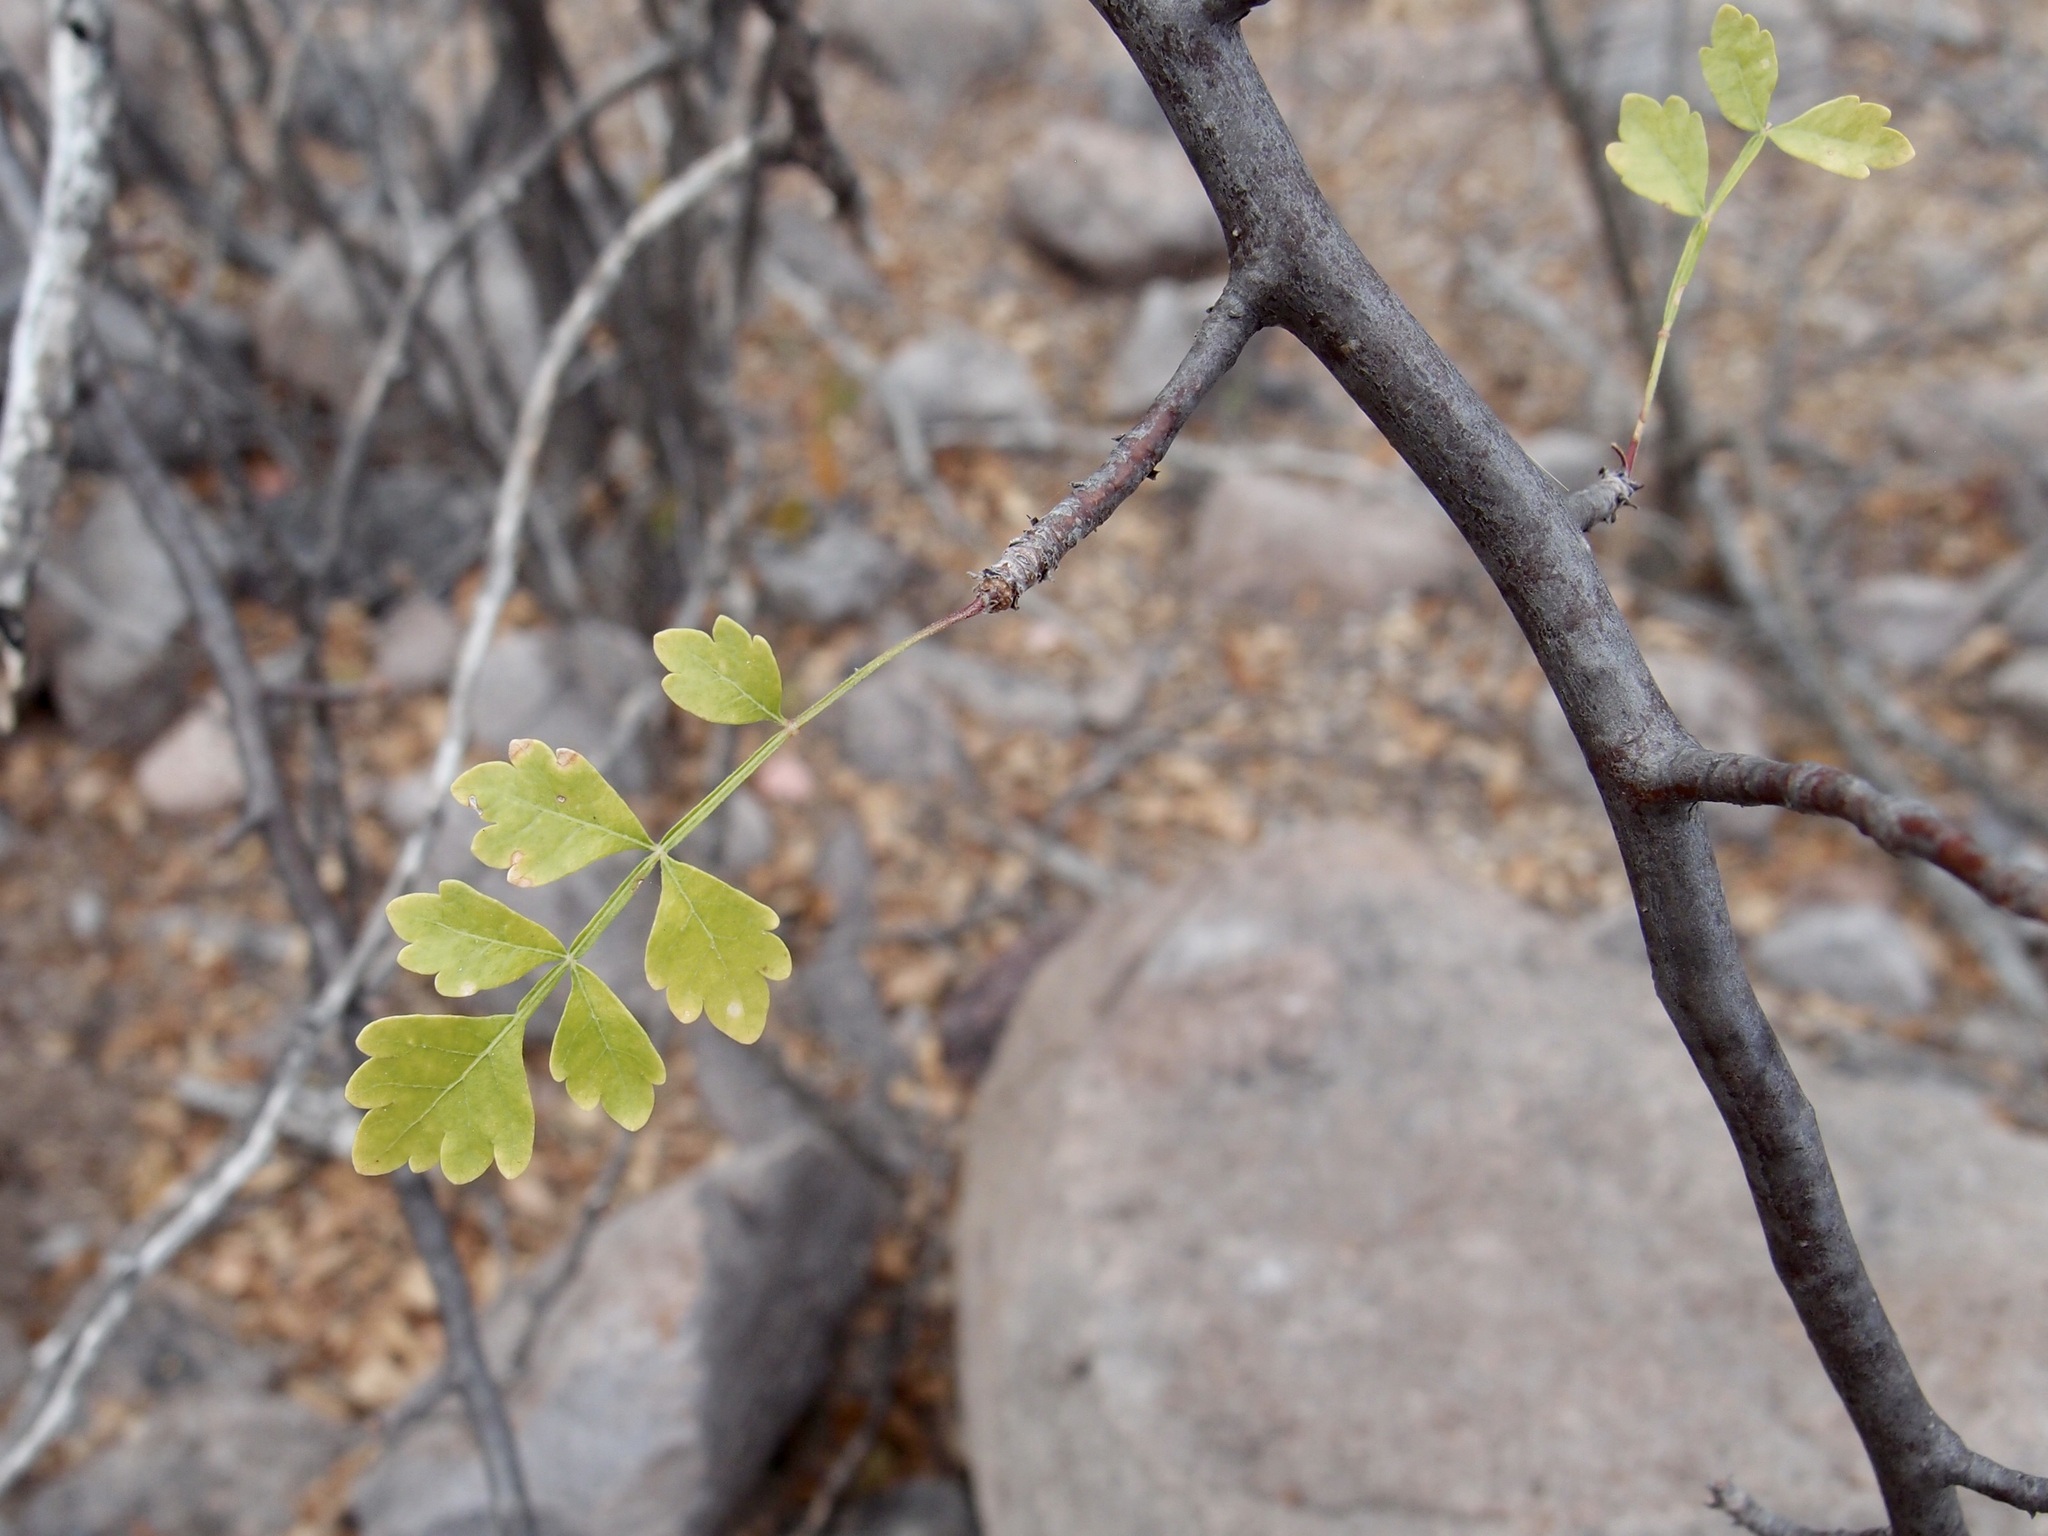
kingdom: Plantae
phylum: Tracheophyta
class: Magnoliopsida
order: Sapindales
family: Burseraceae
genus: Bursera
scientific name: Bursera laxiflora
